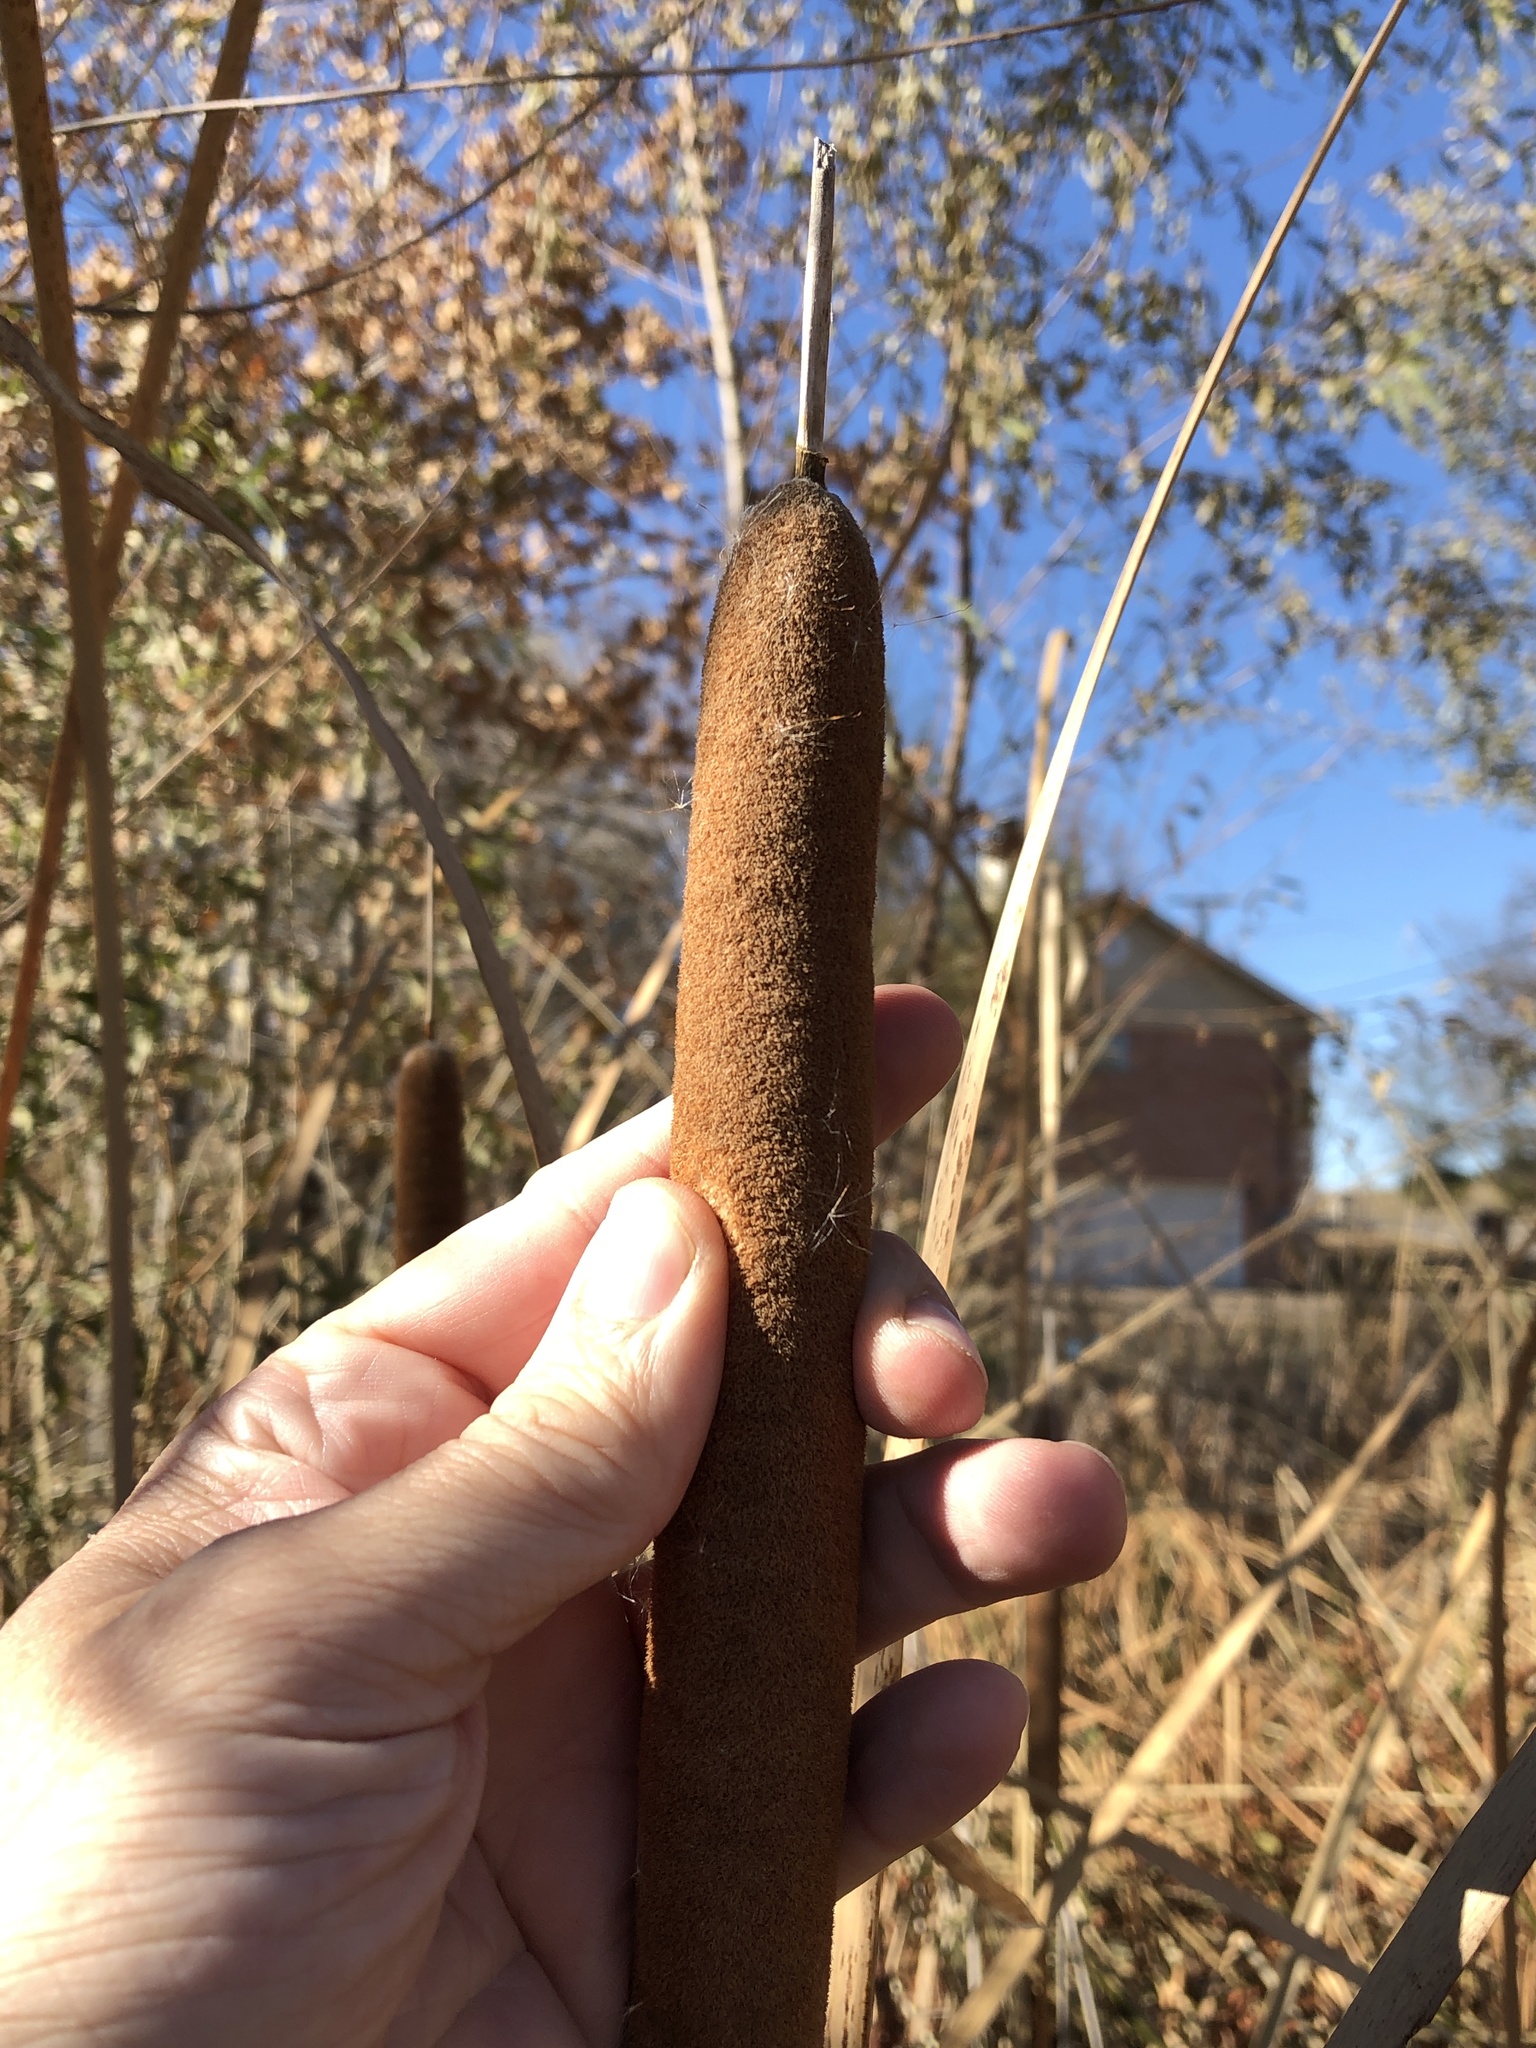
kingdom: Plantae
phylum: Tracheophyta
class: Liliopsida
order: Poales
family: Typhaceae
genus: Typha
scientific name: Typha domingensis
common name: Southern cattail
